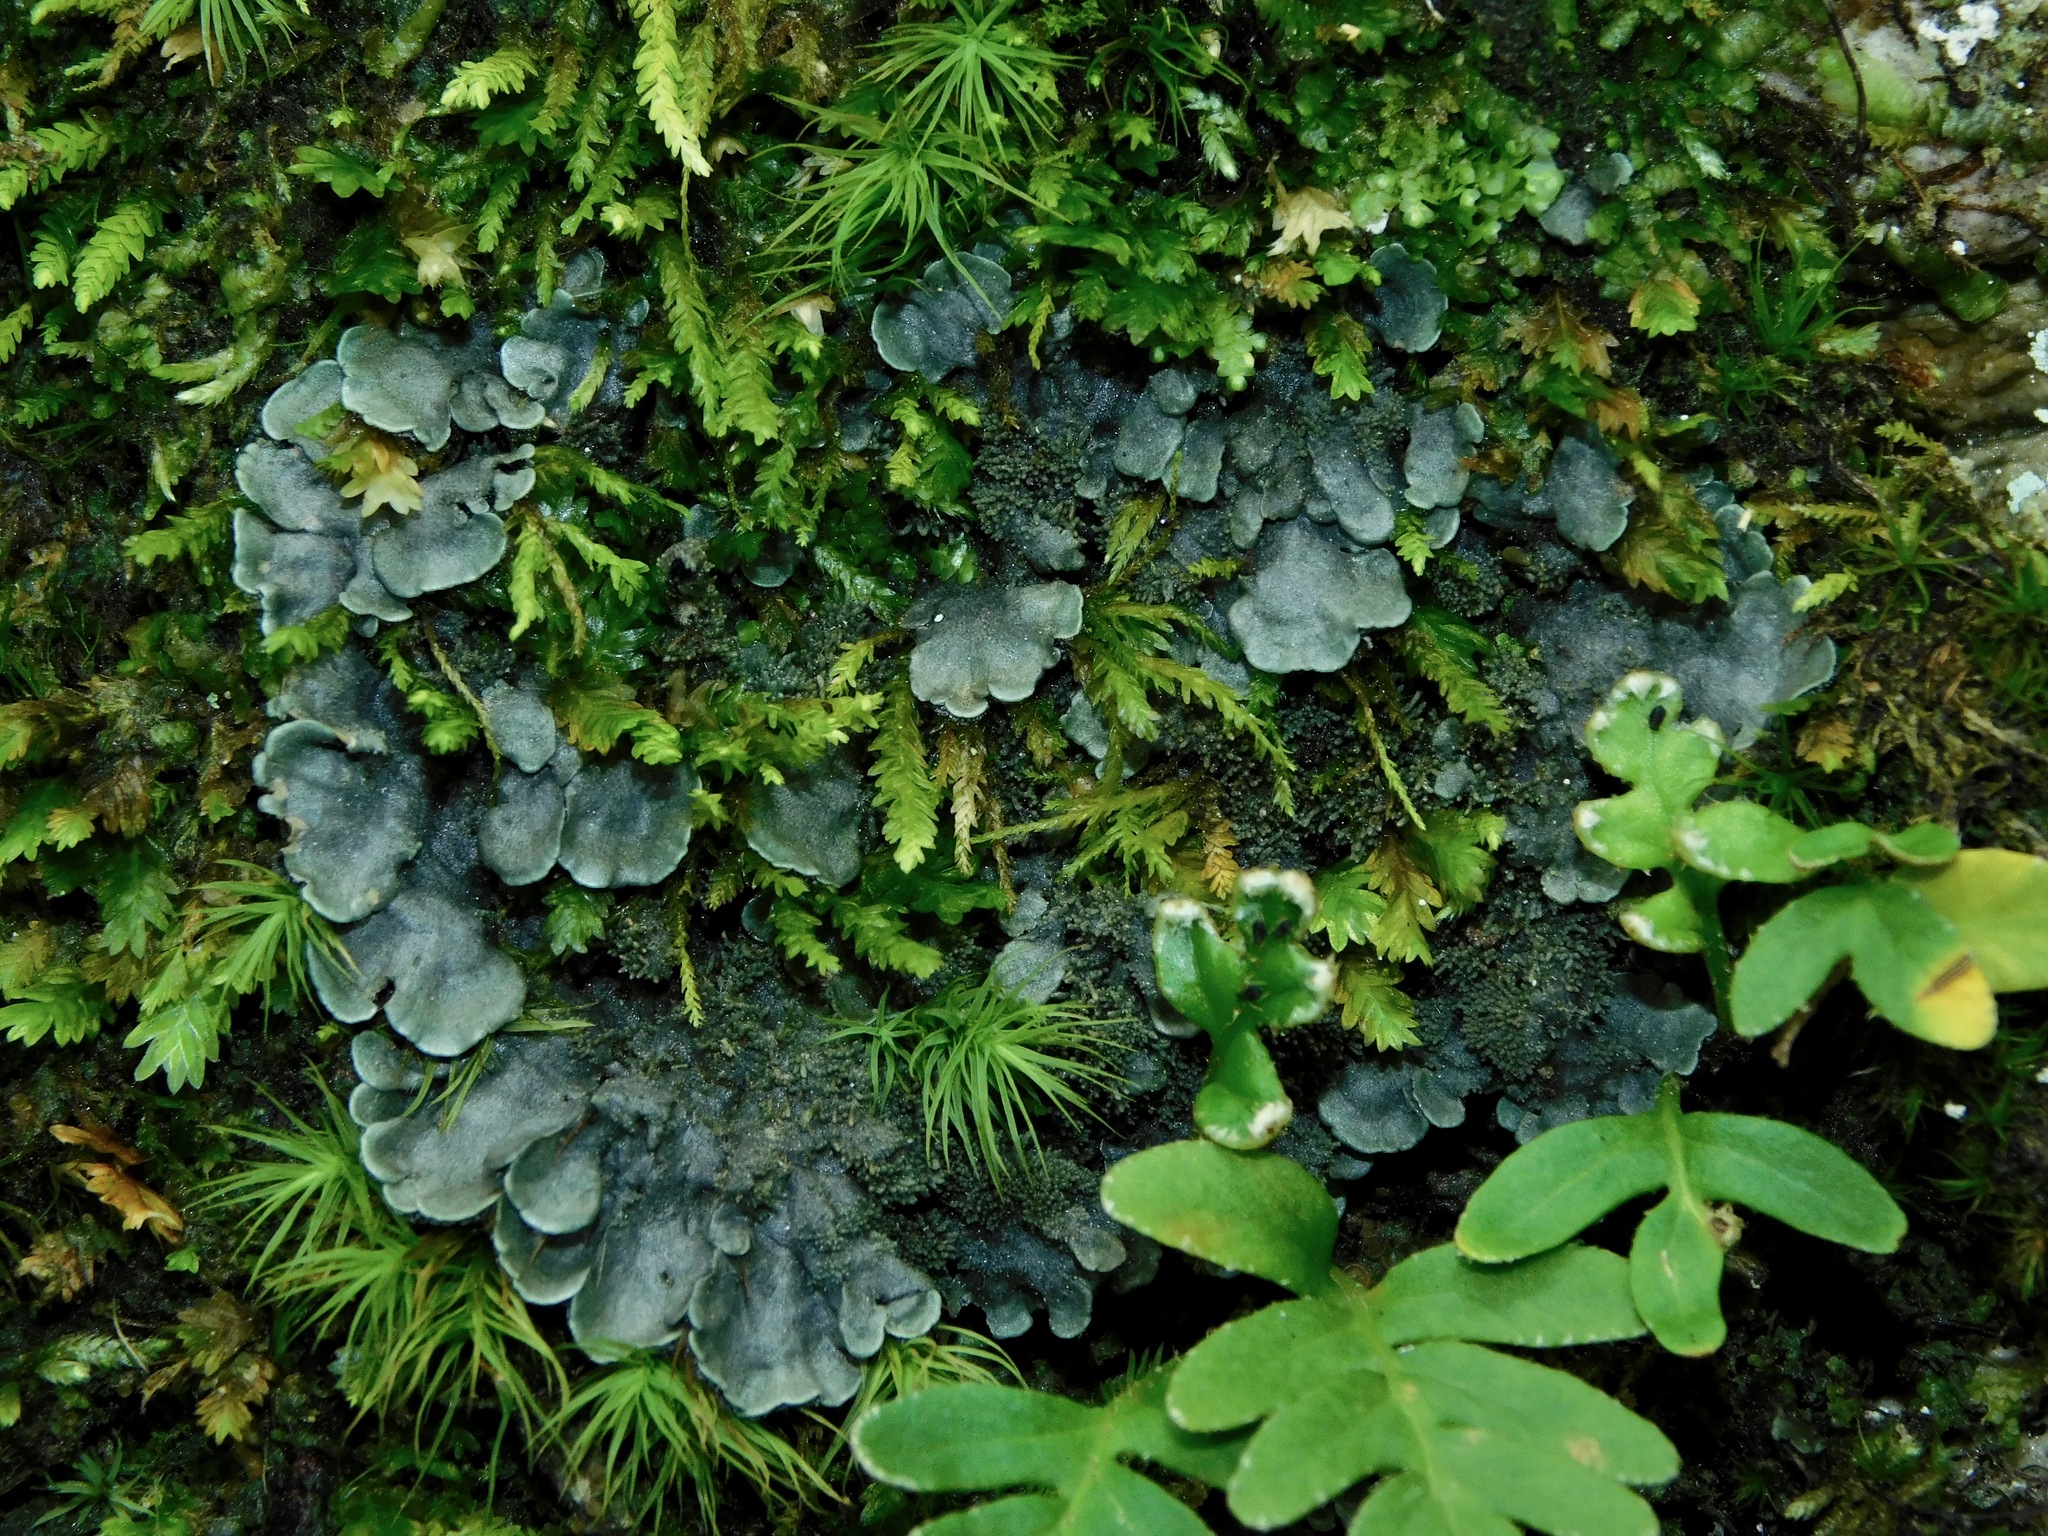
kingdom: Fungi
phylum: Ascomycota
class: Lecanoromycetes
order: Peltigerales
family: Coccocarpiaceae
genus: Coccocarpia
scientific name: Coccocarpia palmicola
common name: Salted shell lichen
